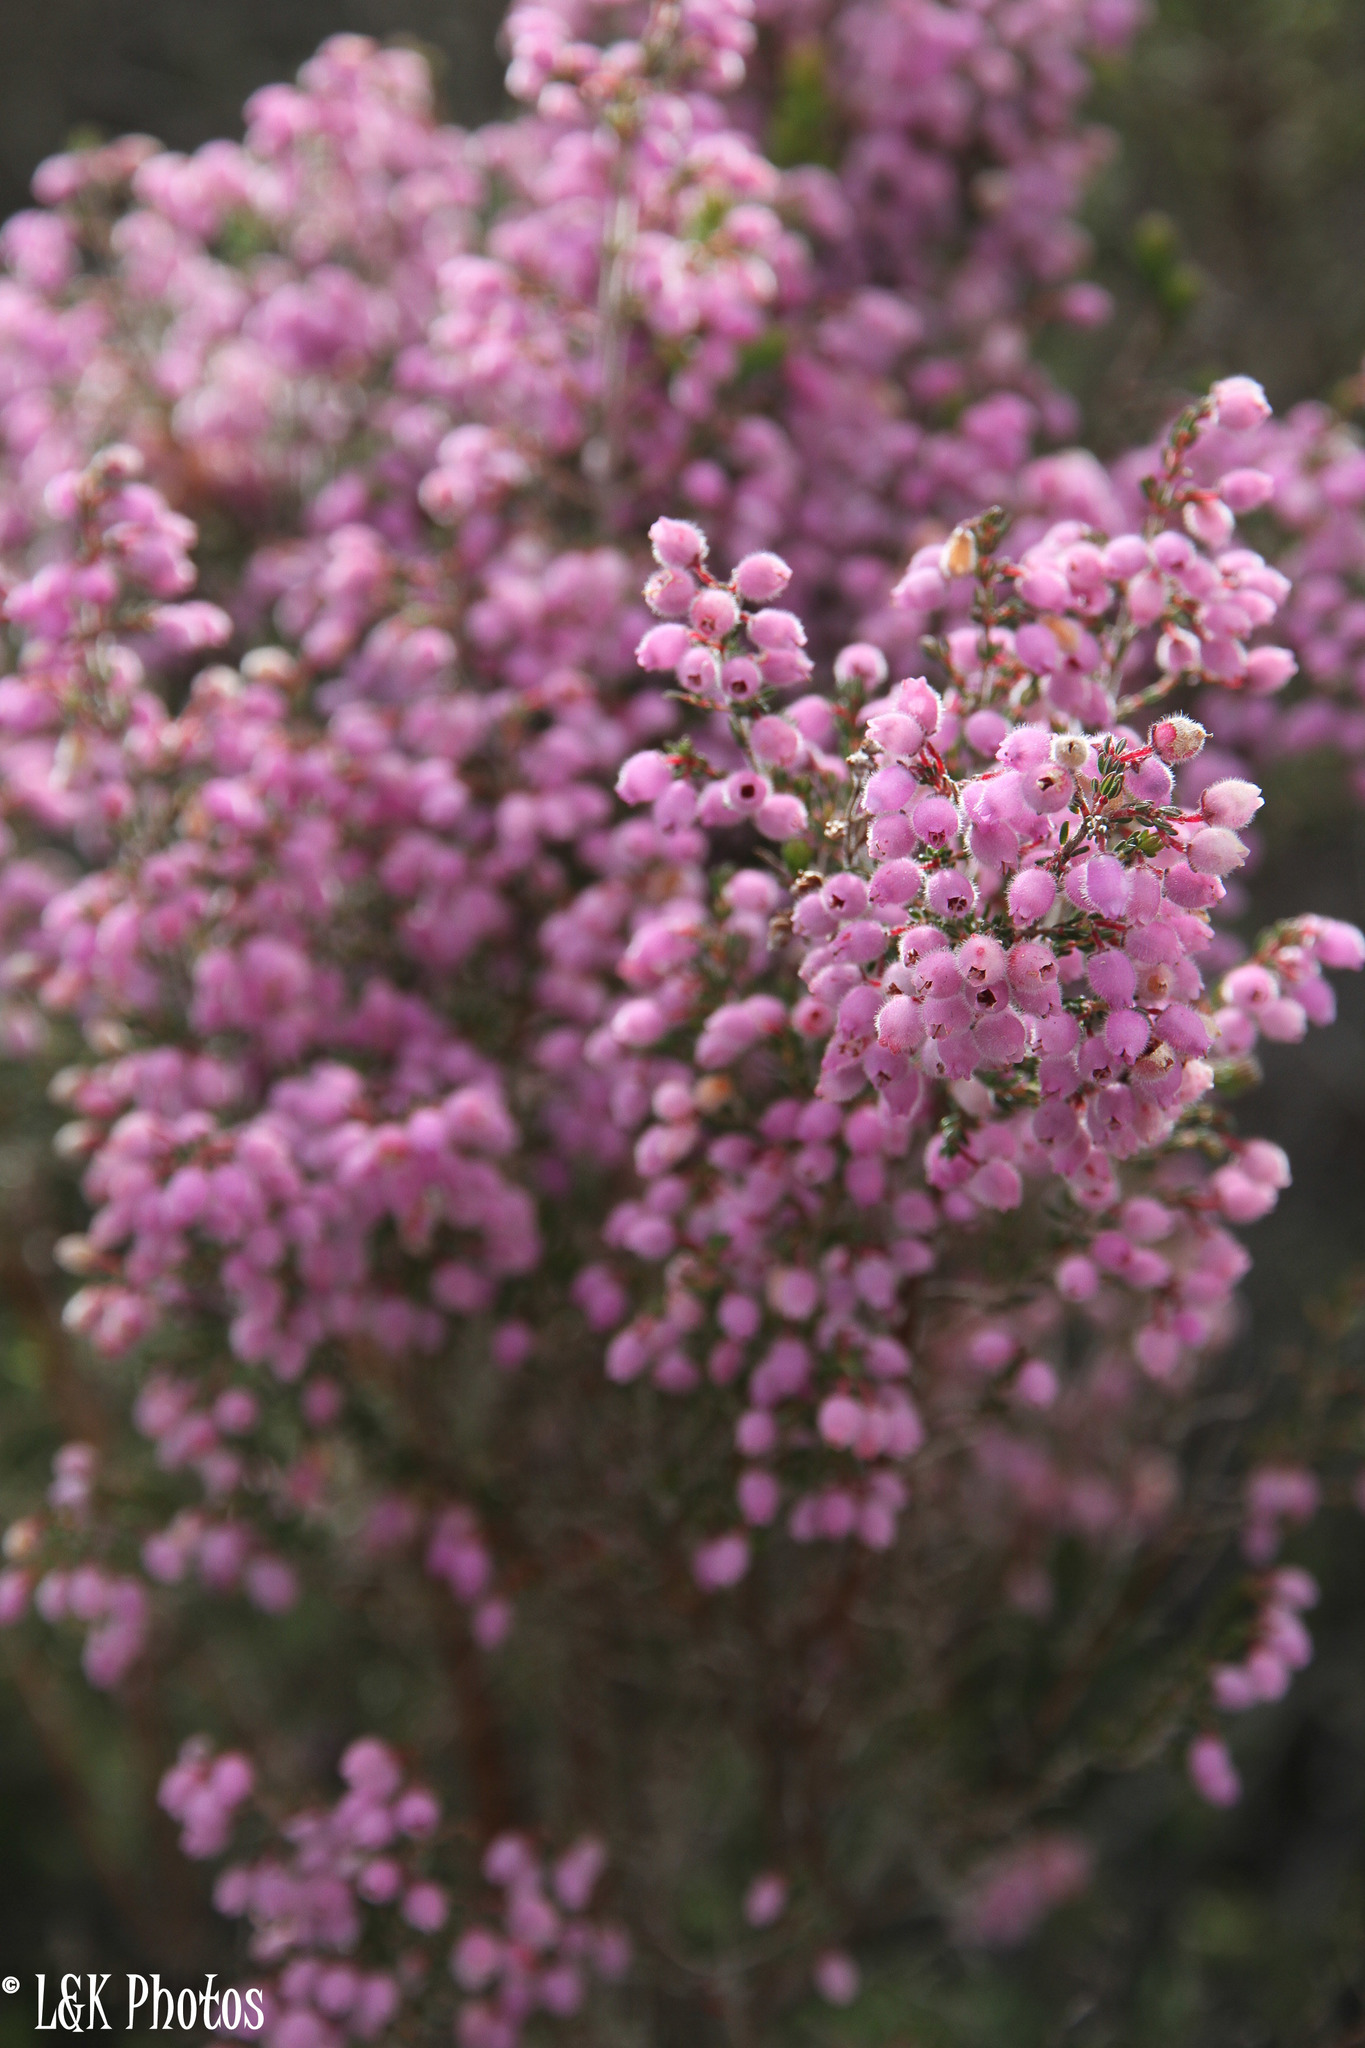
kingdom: Plantae
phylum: Tracheophyta
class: Magnoliopsida
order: Ericales
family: Ericaceae
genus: Erica
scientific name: Erica hirtiflora
